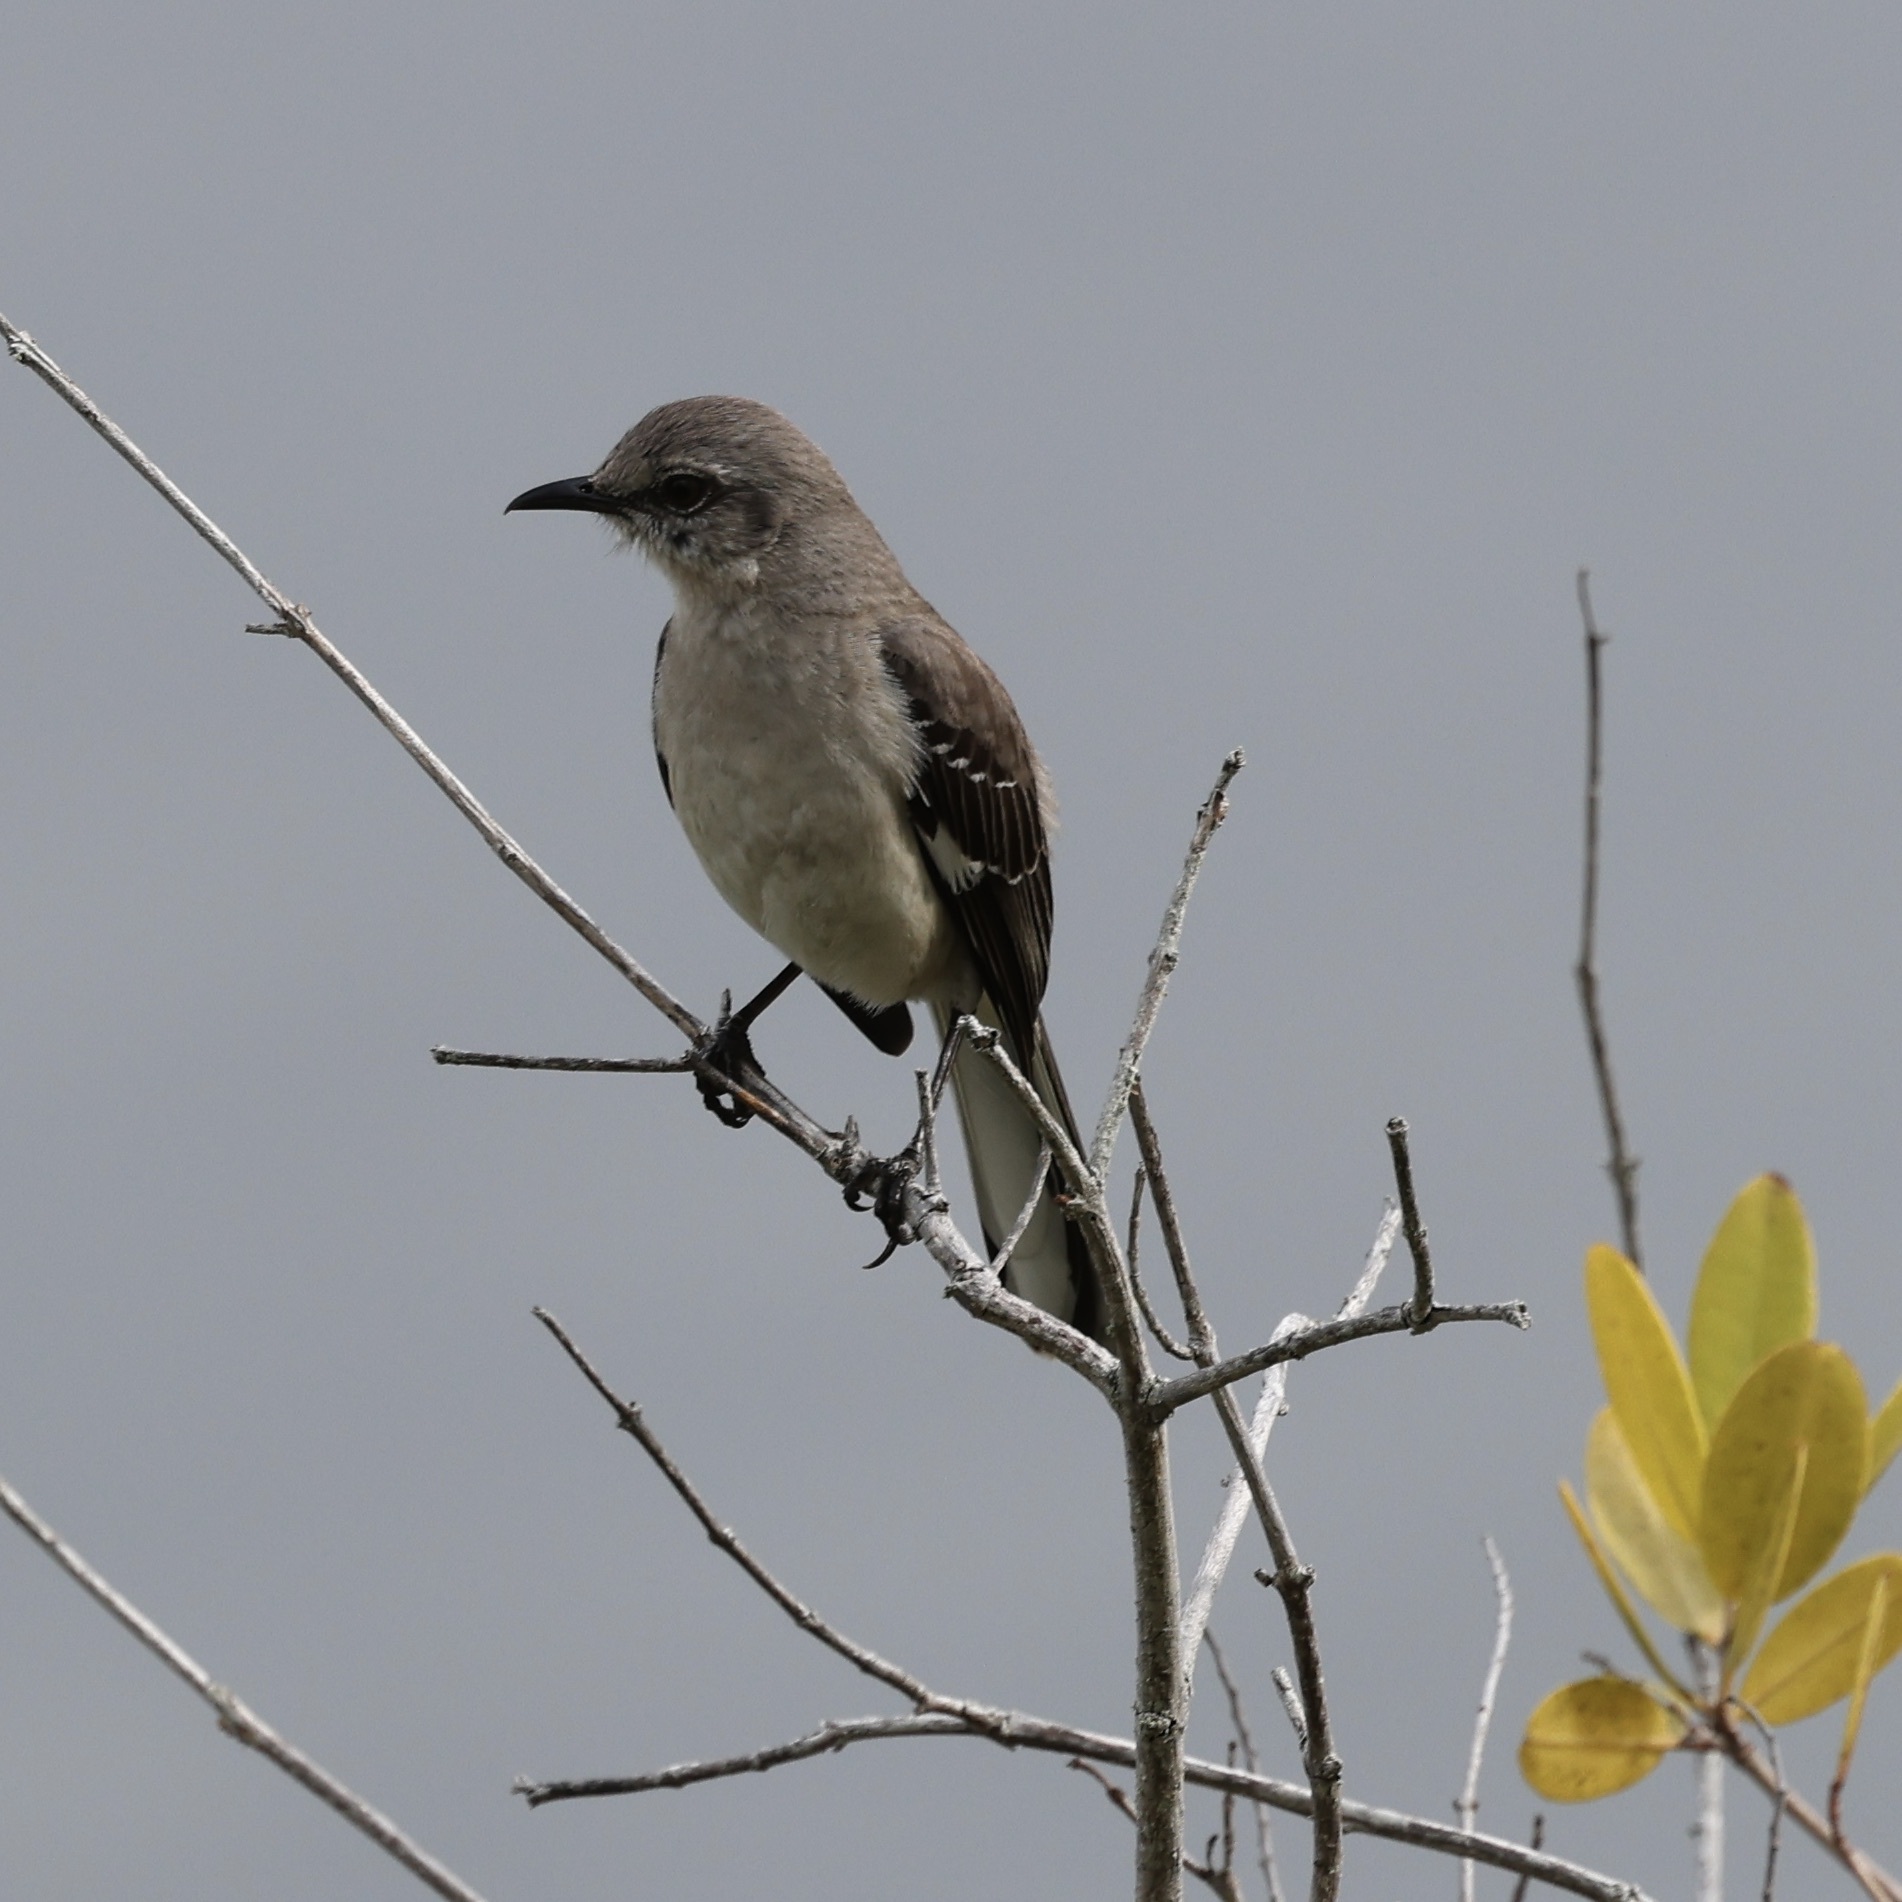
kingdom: Animalia
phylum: Chordata
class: Aves
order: Passeriformes
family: Mimidae
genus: Mimus
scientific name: Mimus polyglottos
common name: Northern mockingbird
